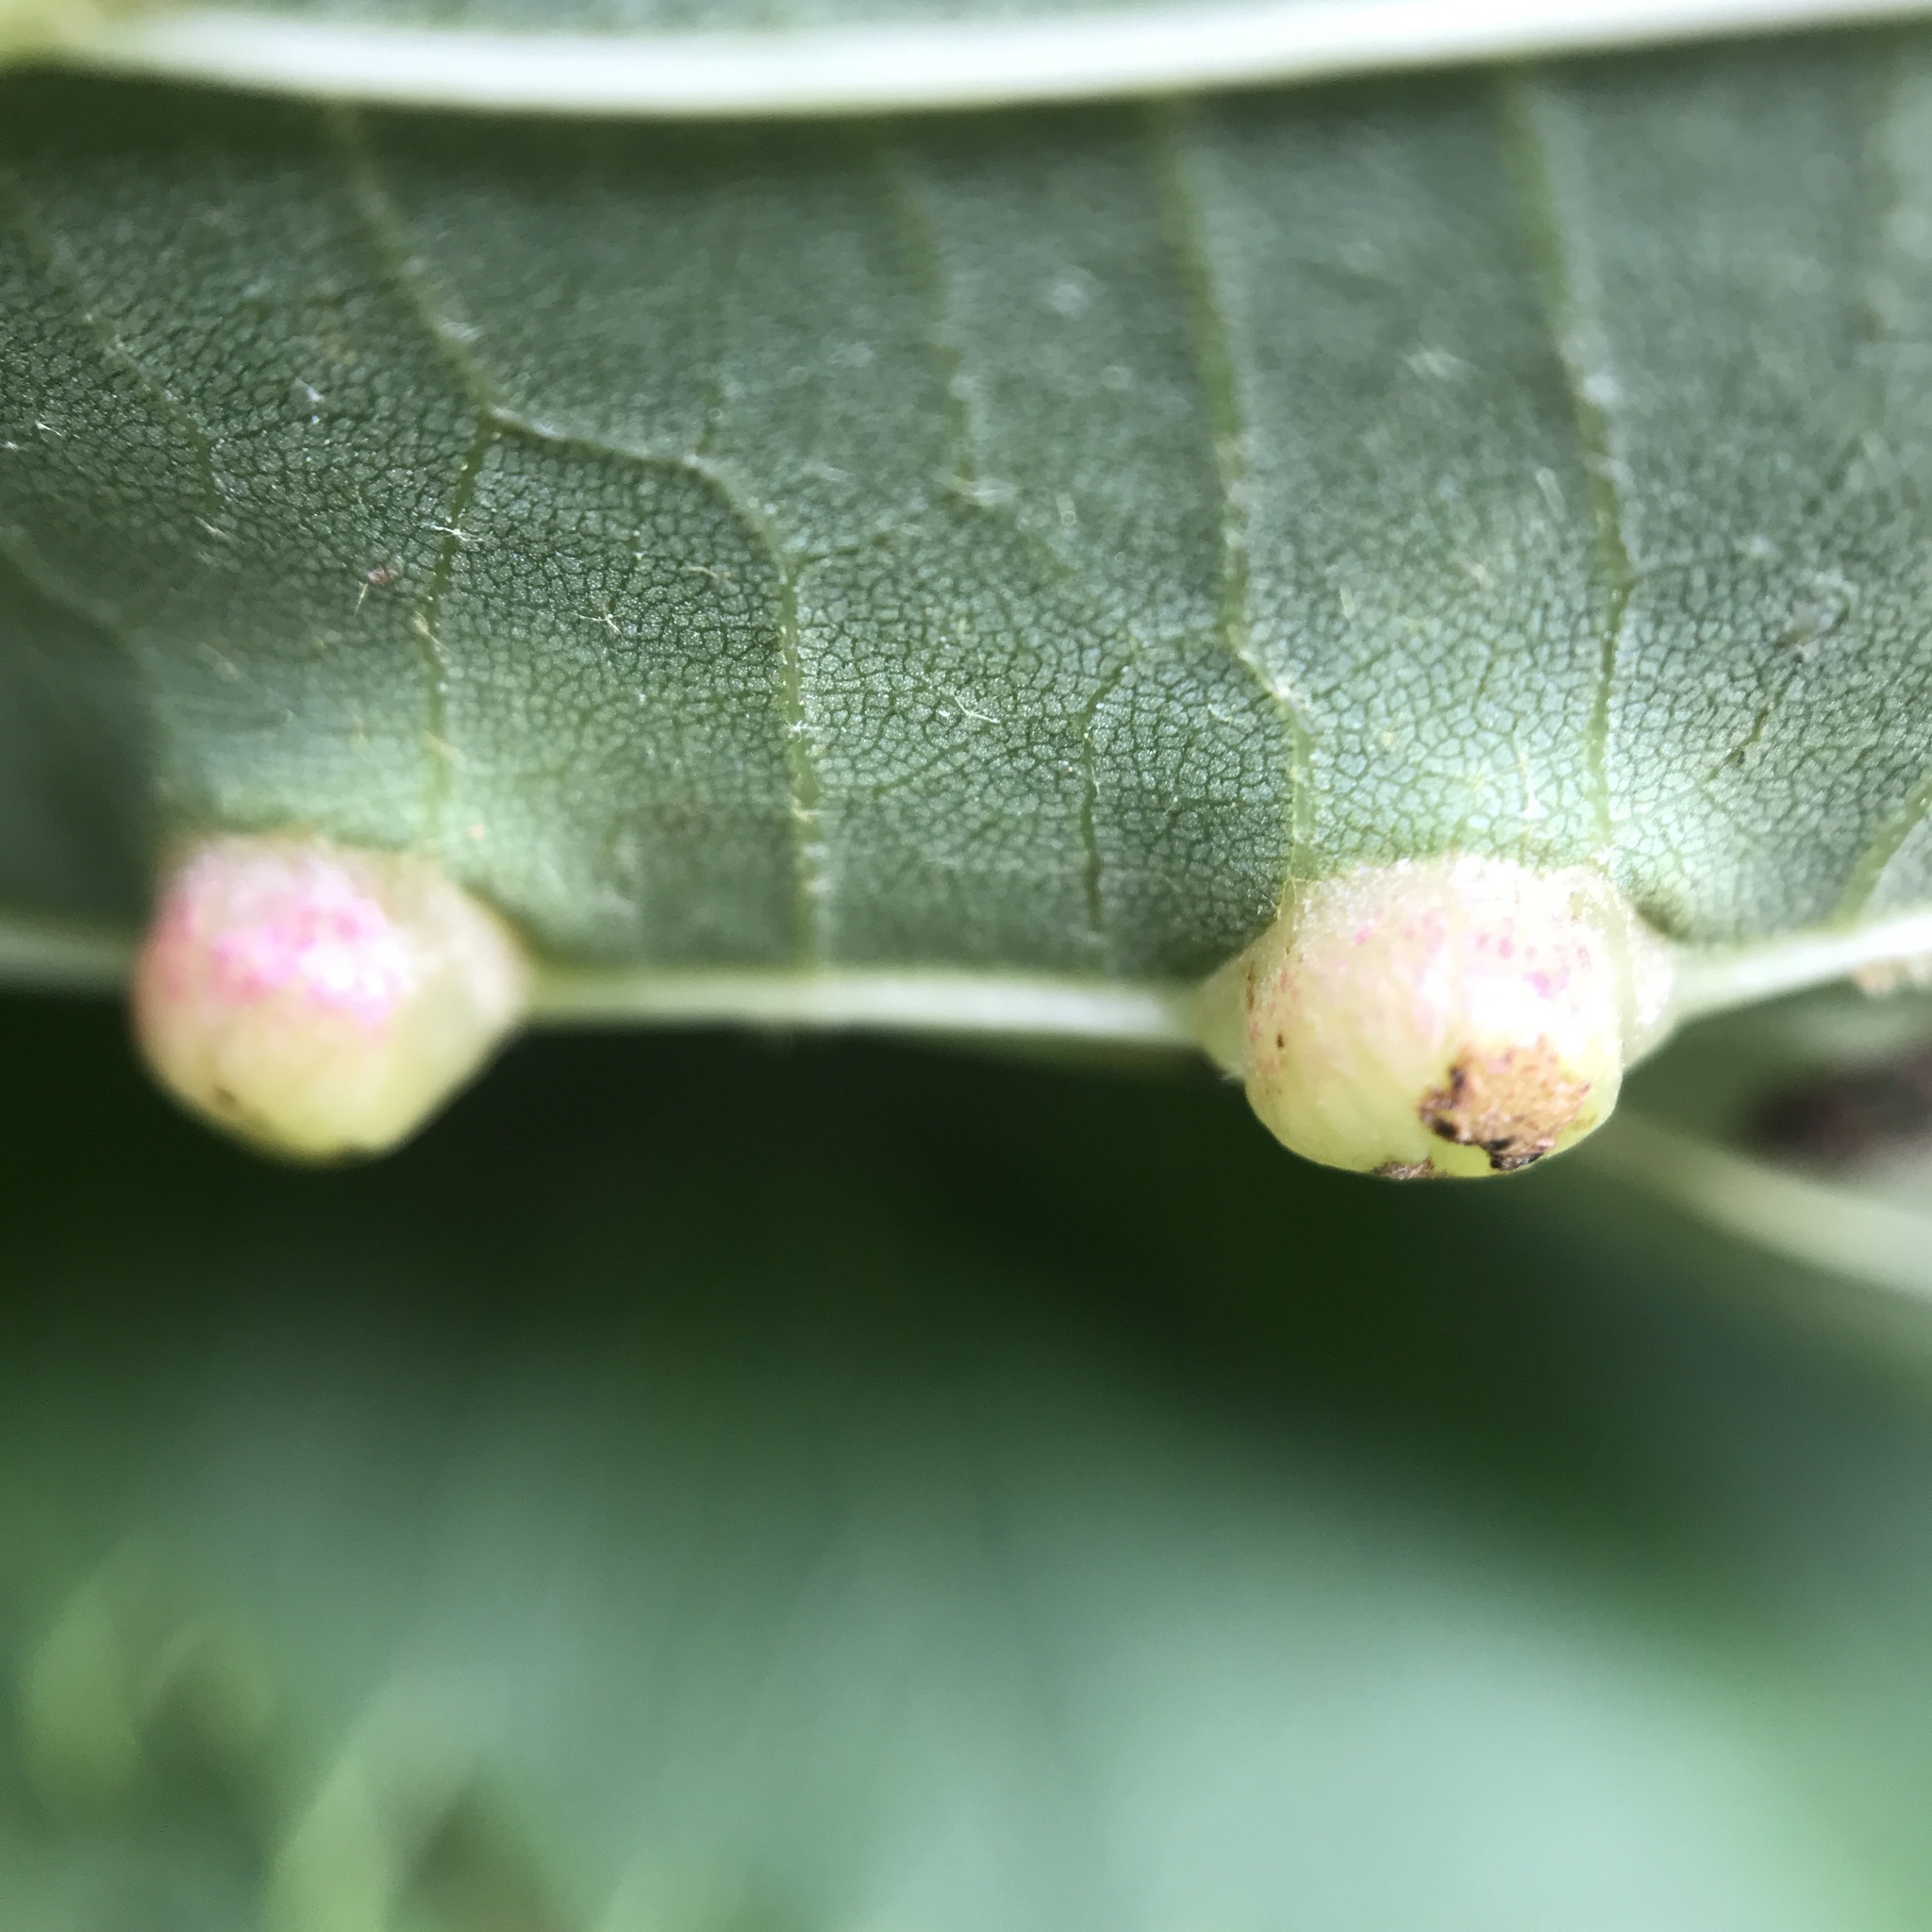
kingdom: Animalia
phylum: Arthropoda
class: Insecta
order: Diptera
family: Cecidomyiidae
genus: Contarinia
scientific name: Contarinia verrucicola
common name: Linden wart gall midge
